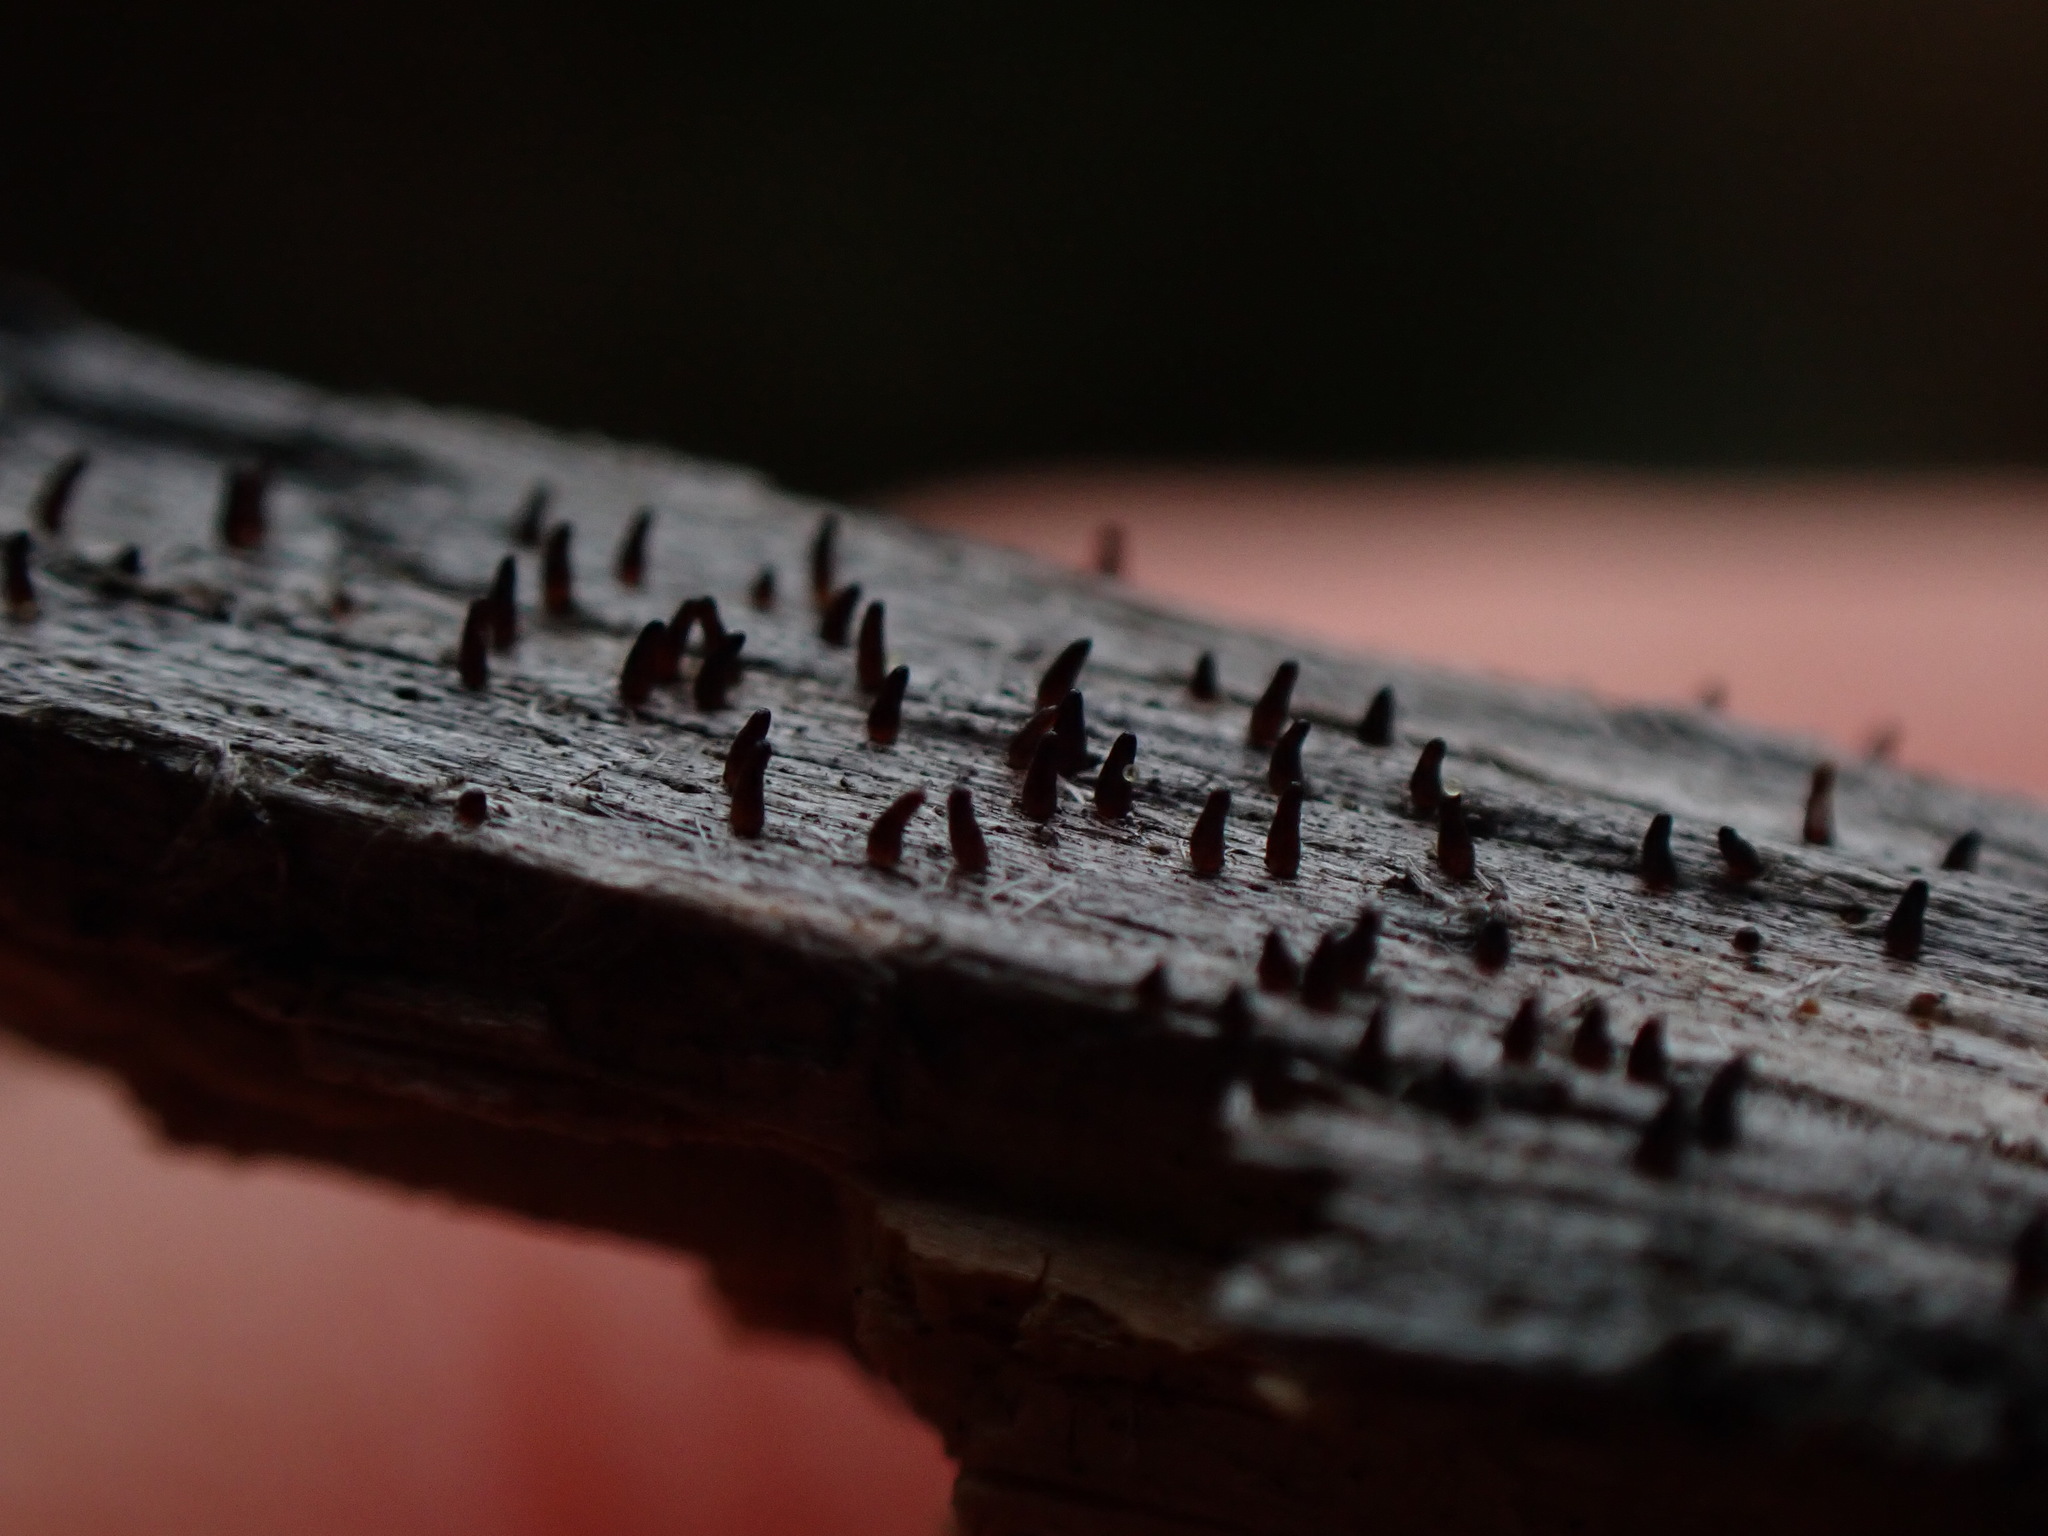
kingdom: Fungi
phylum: Basidiomycota
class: Dacrymycetes
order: Dacrymycetales
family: Dacryonaemataceae
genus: Dacryonaema
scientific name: Dacryonaema rufum
